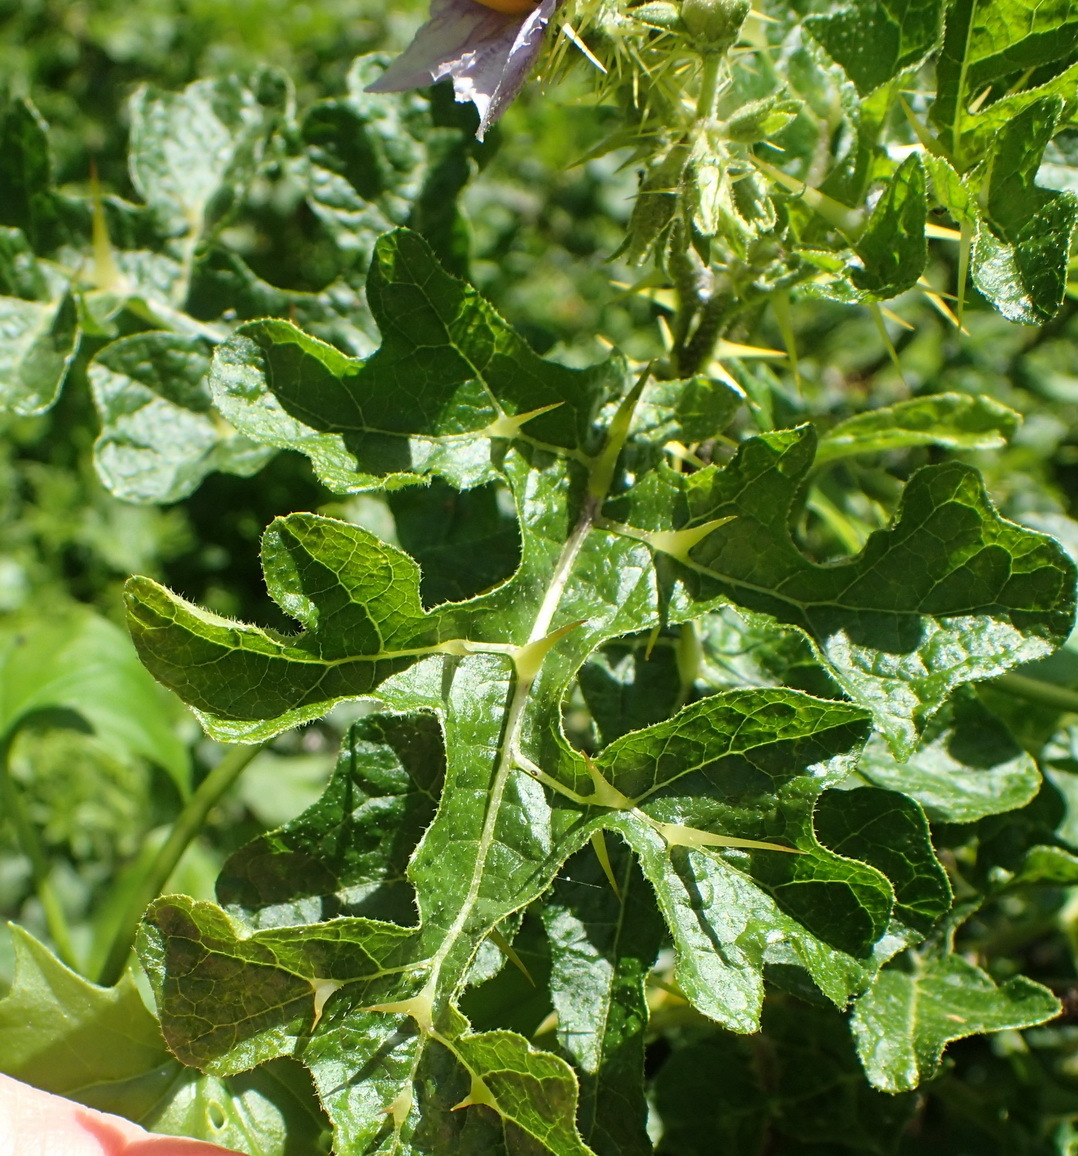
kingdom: Plantae
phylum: Tracheophyta
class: Magnoliopsida
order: Solanales
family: Solanaceae
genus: Solanum
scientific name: Solanum linnaeanum
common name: Nightshade
